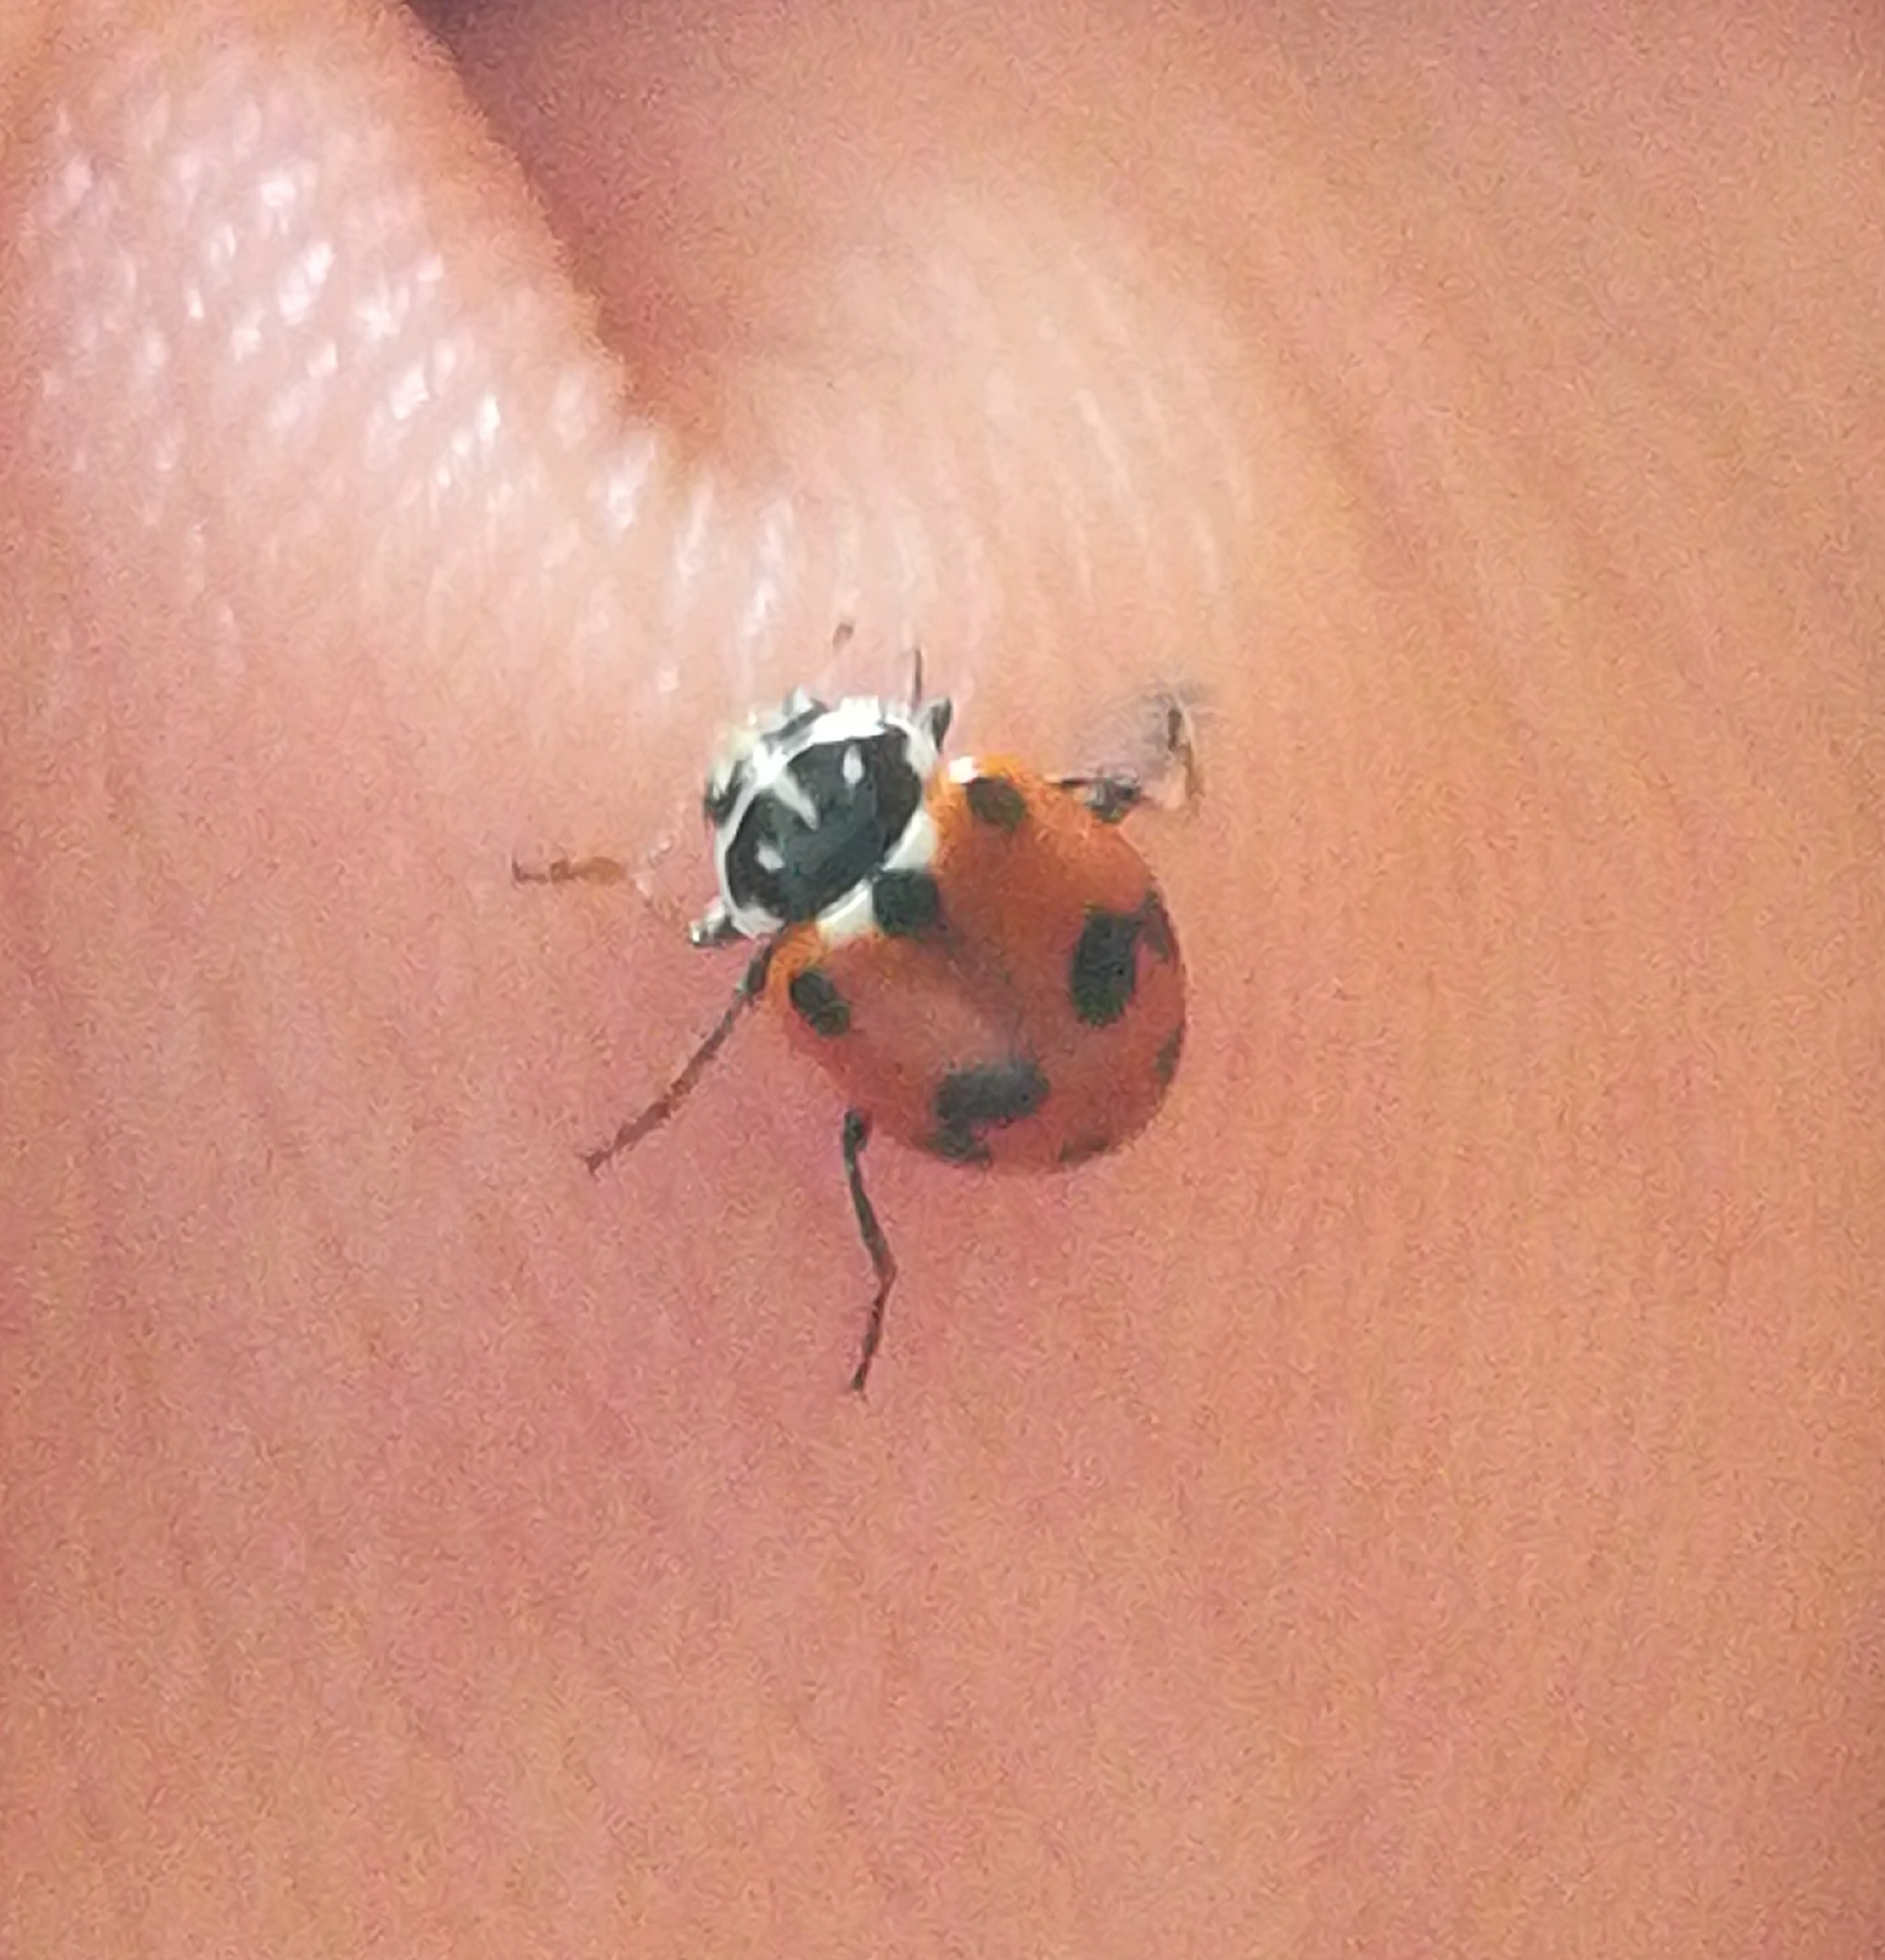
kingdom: Animalia
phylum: Arthropoda
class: Insecta
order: Coleoptera
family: Coccinellidae
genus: Hippodamia
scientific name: Hippodamia variegata
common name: Ladybird beetle
